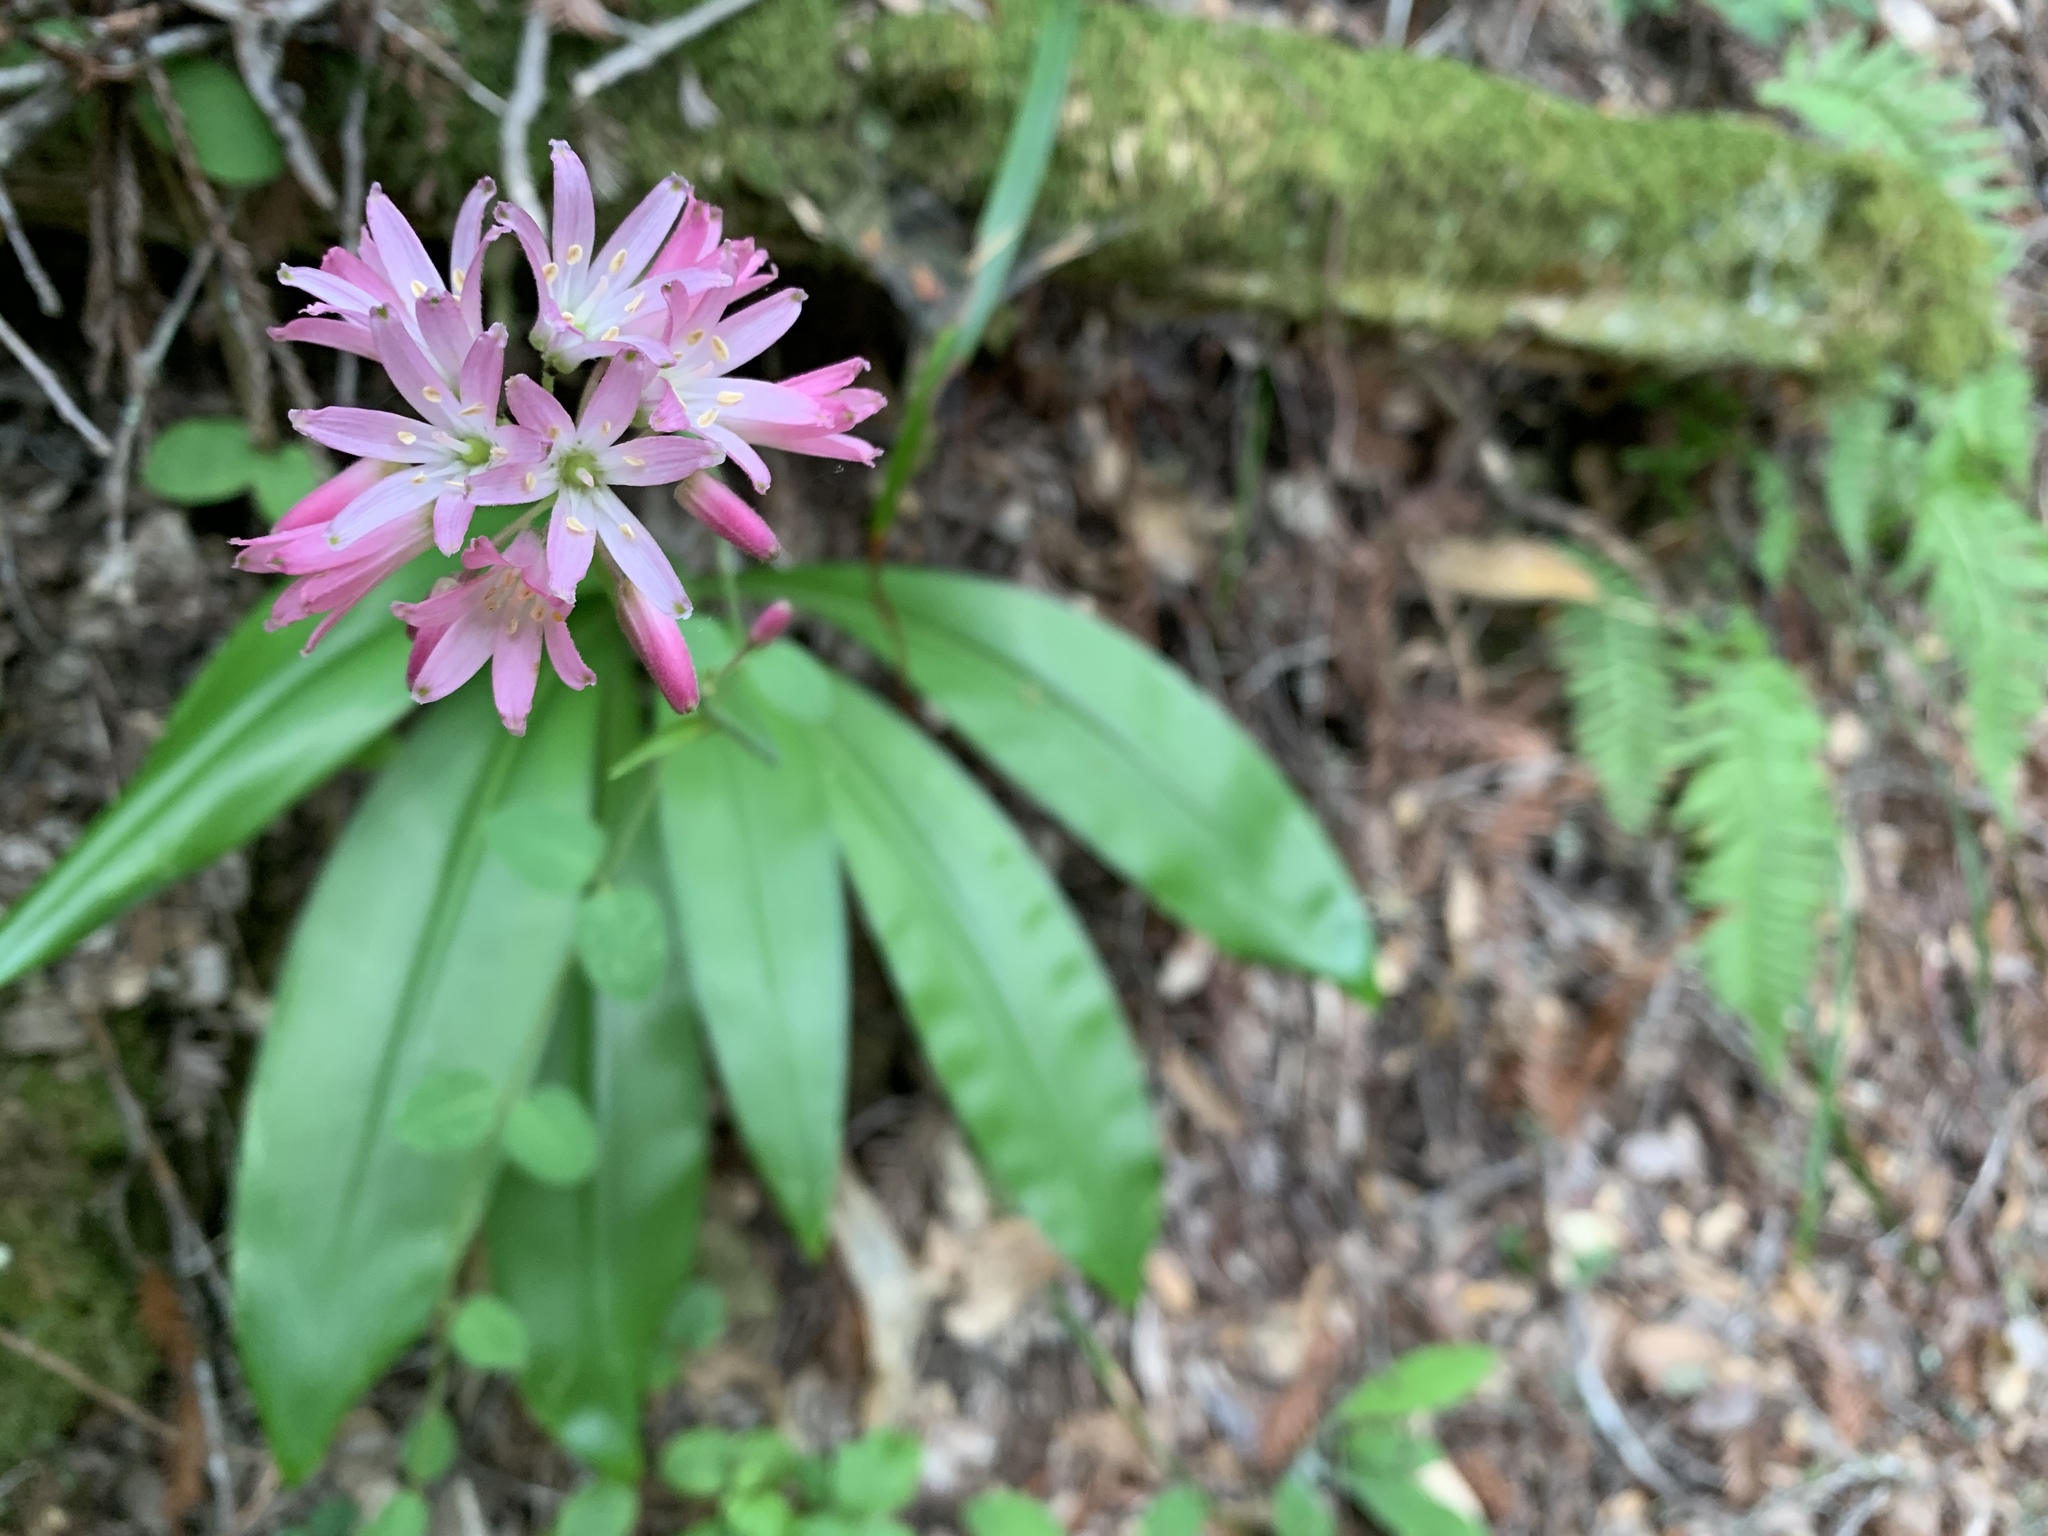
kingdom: Plantae
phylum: Tracheophyta
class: Liliopsida
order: Liliales
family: Liliaceae
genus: Clintonia
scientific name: Clintonia andrewsiana
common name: Red clintonia
